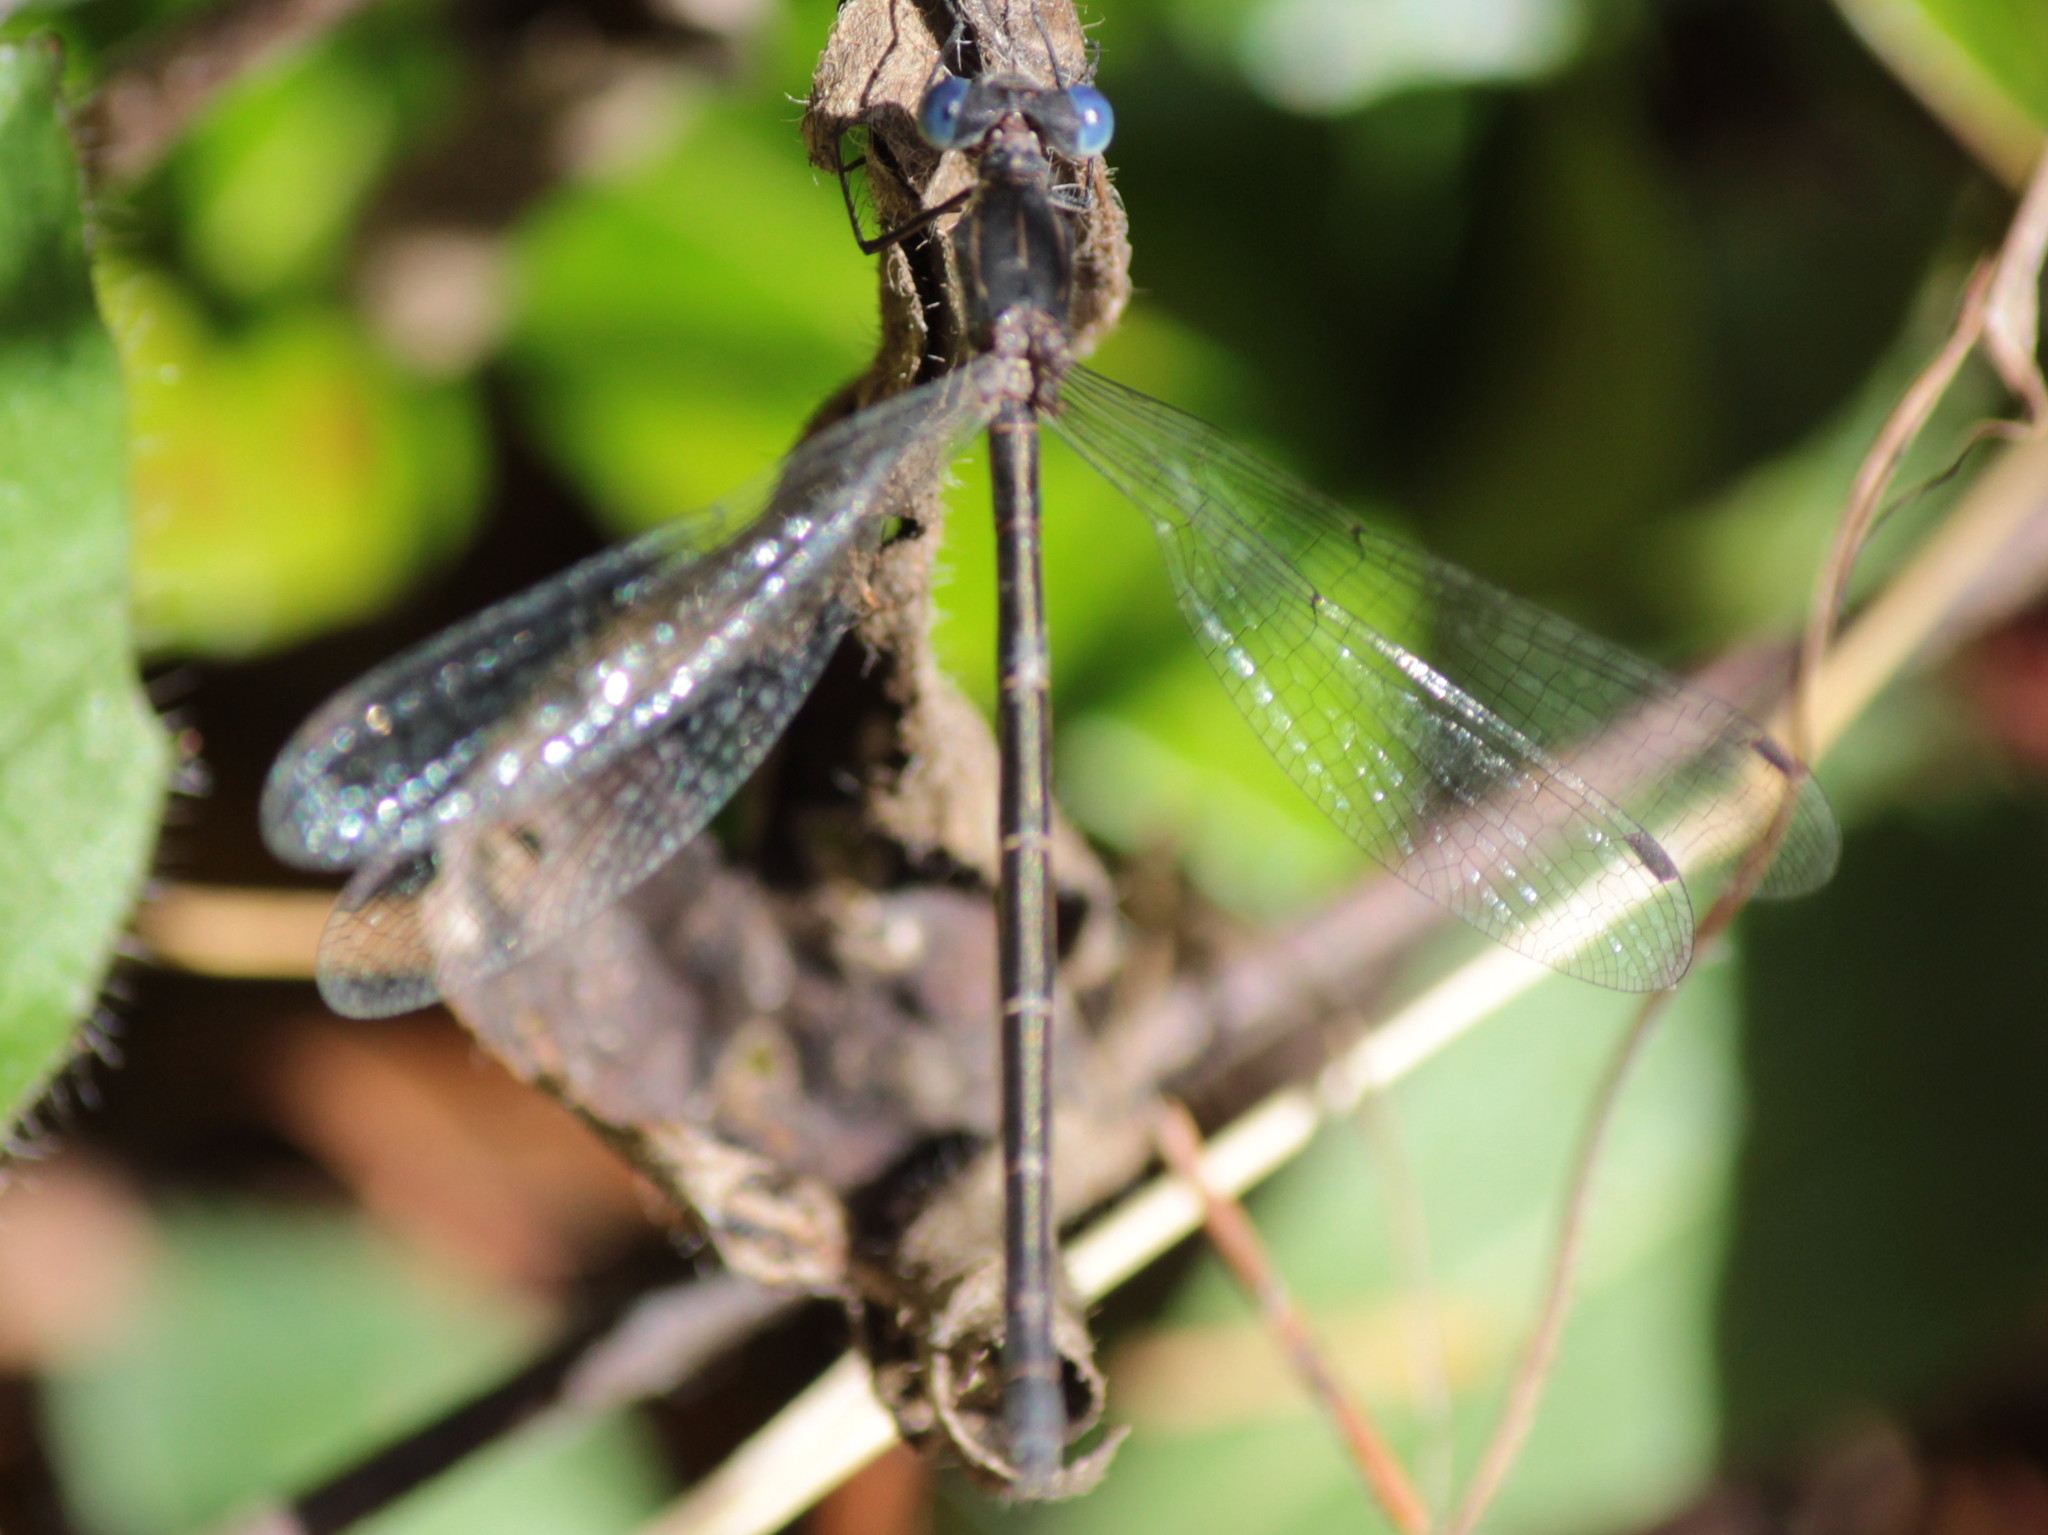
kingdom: Animalia
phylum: Arthropoda
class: Insecta
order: Odonata
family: Lestidae
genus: Lestes
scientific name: Lestes congener
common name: Spotted spreadwing
